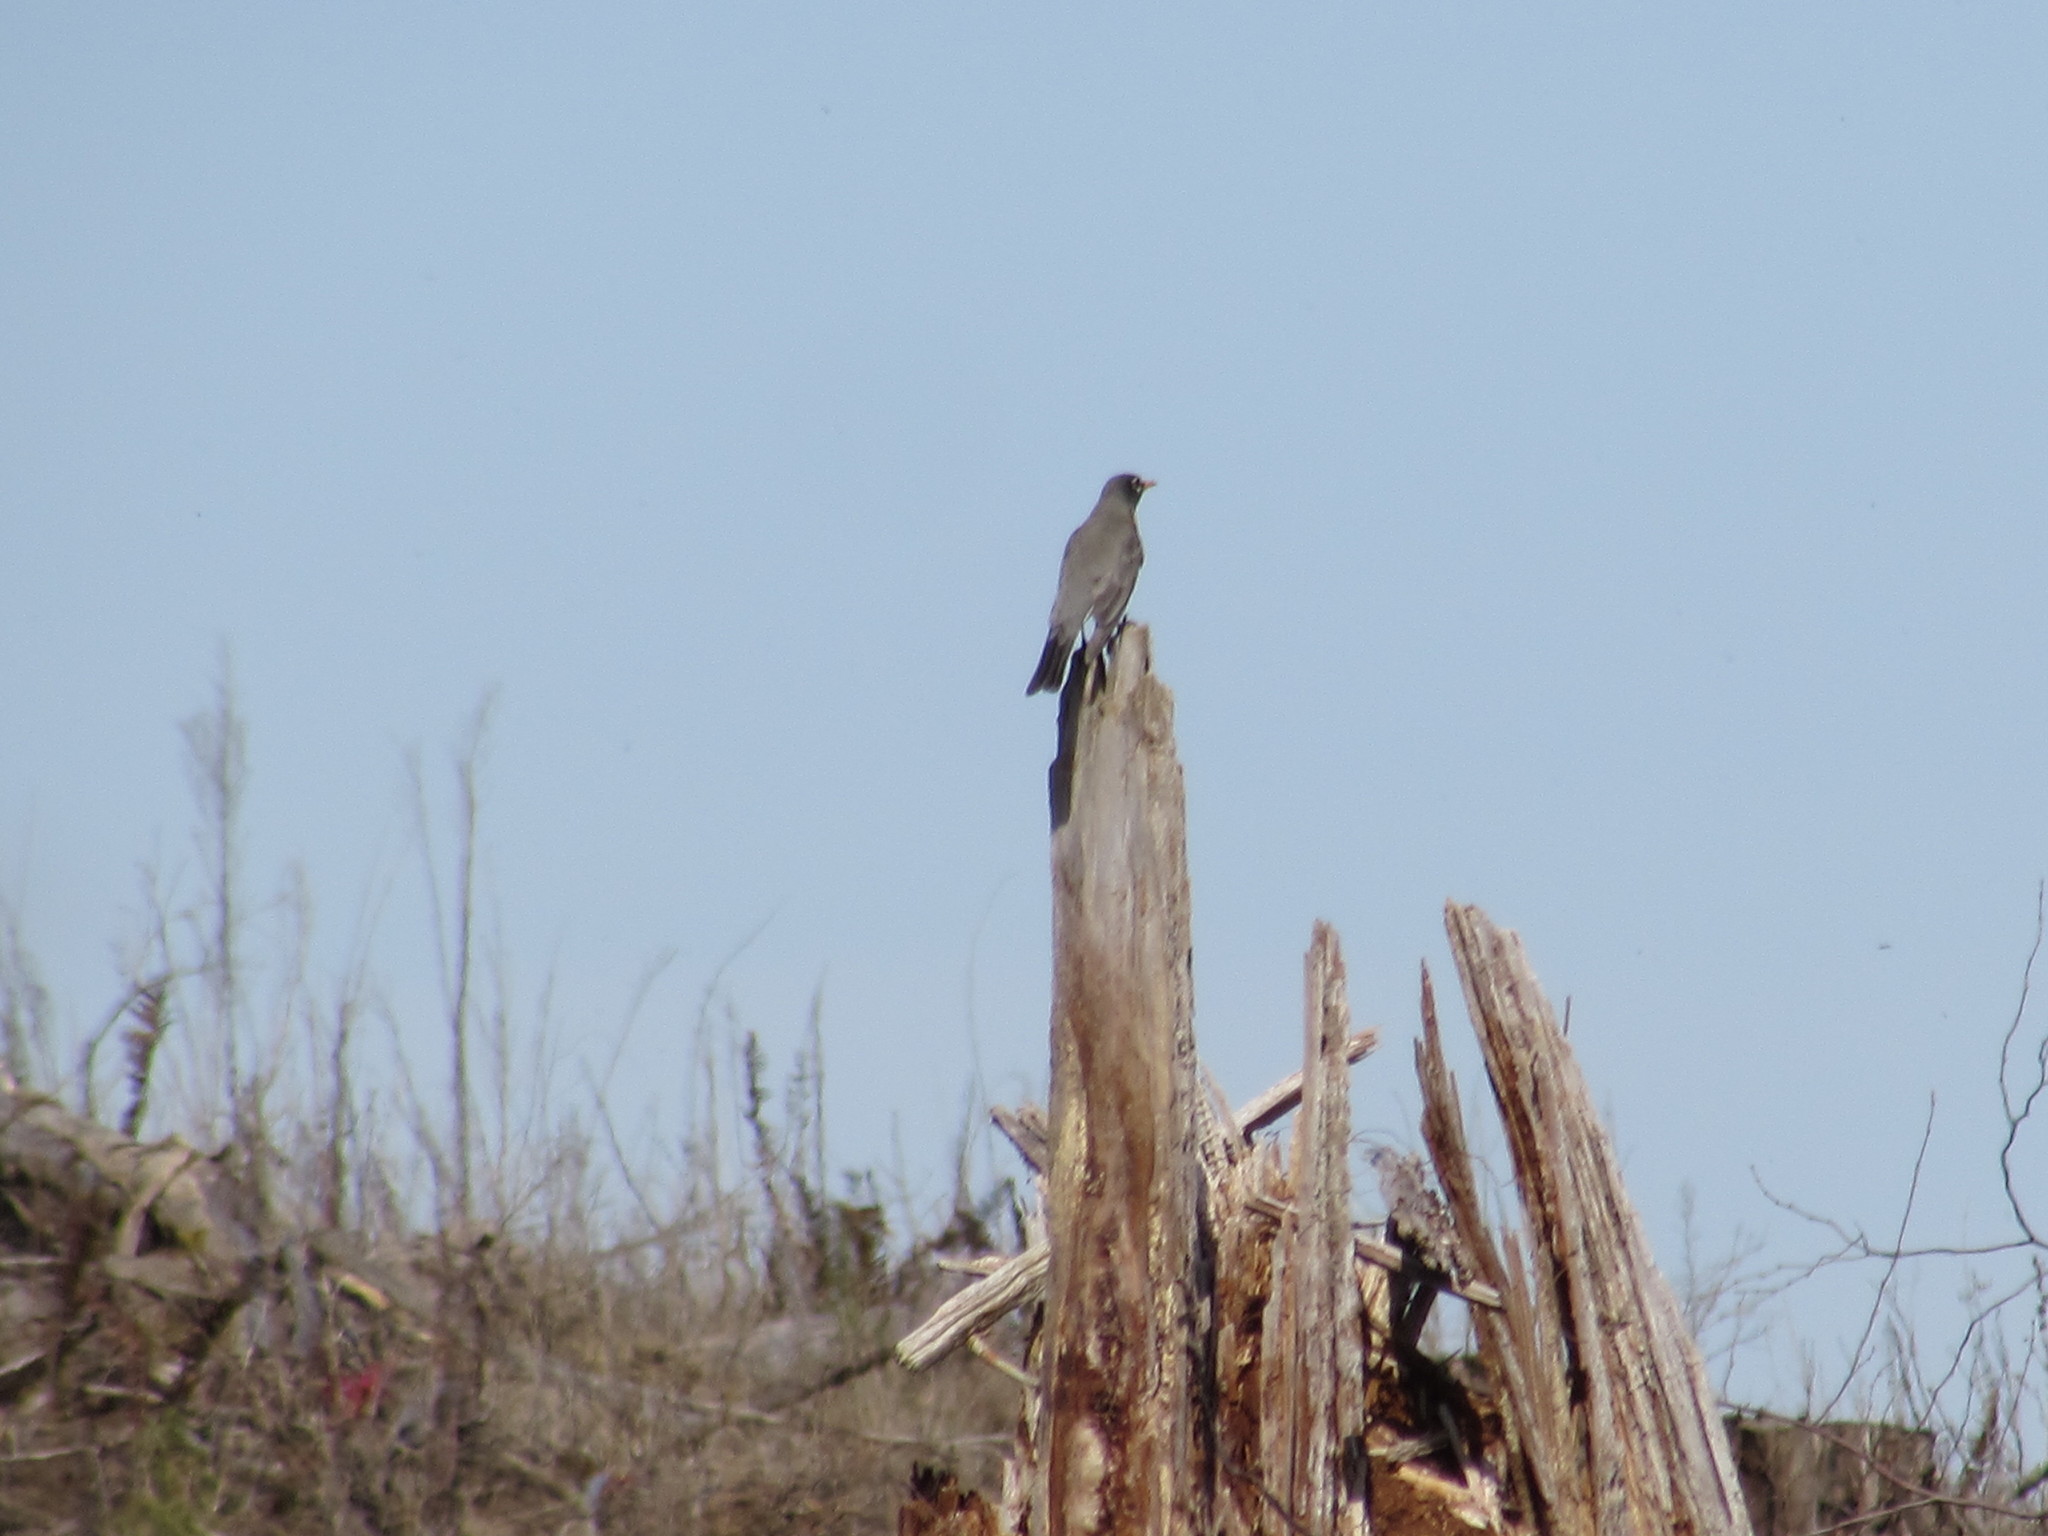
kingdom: Animalia
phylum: Chordata
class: Aves
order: Passeriformes
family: Turdidae
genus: Turdus
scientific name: Turdus migratorius
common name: American robin
